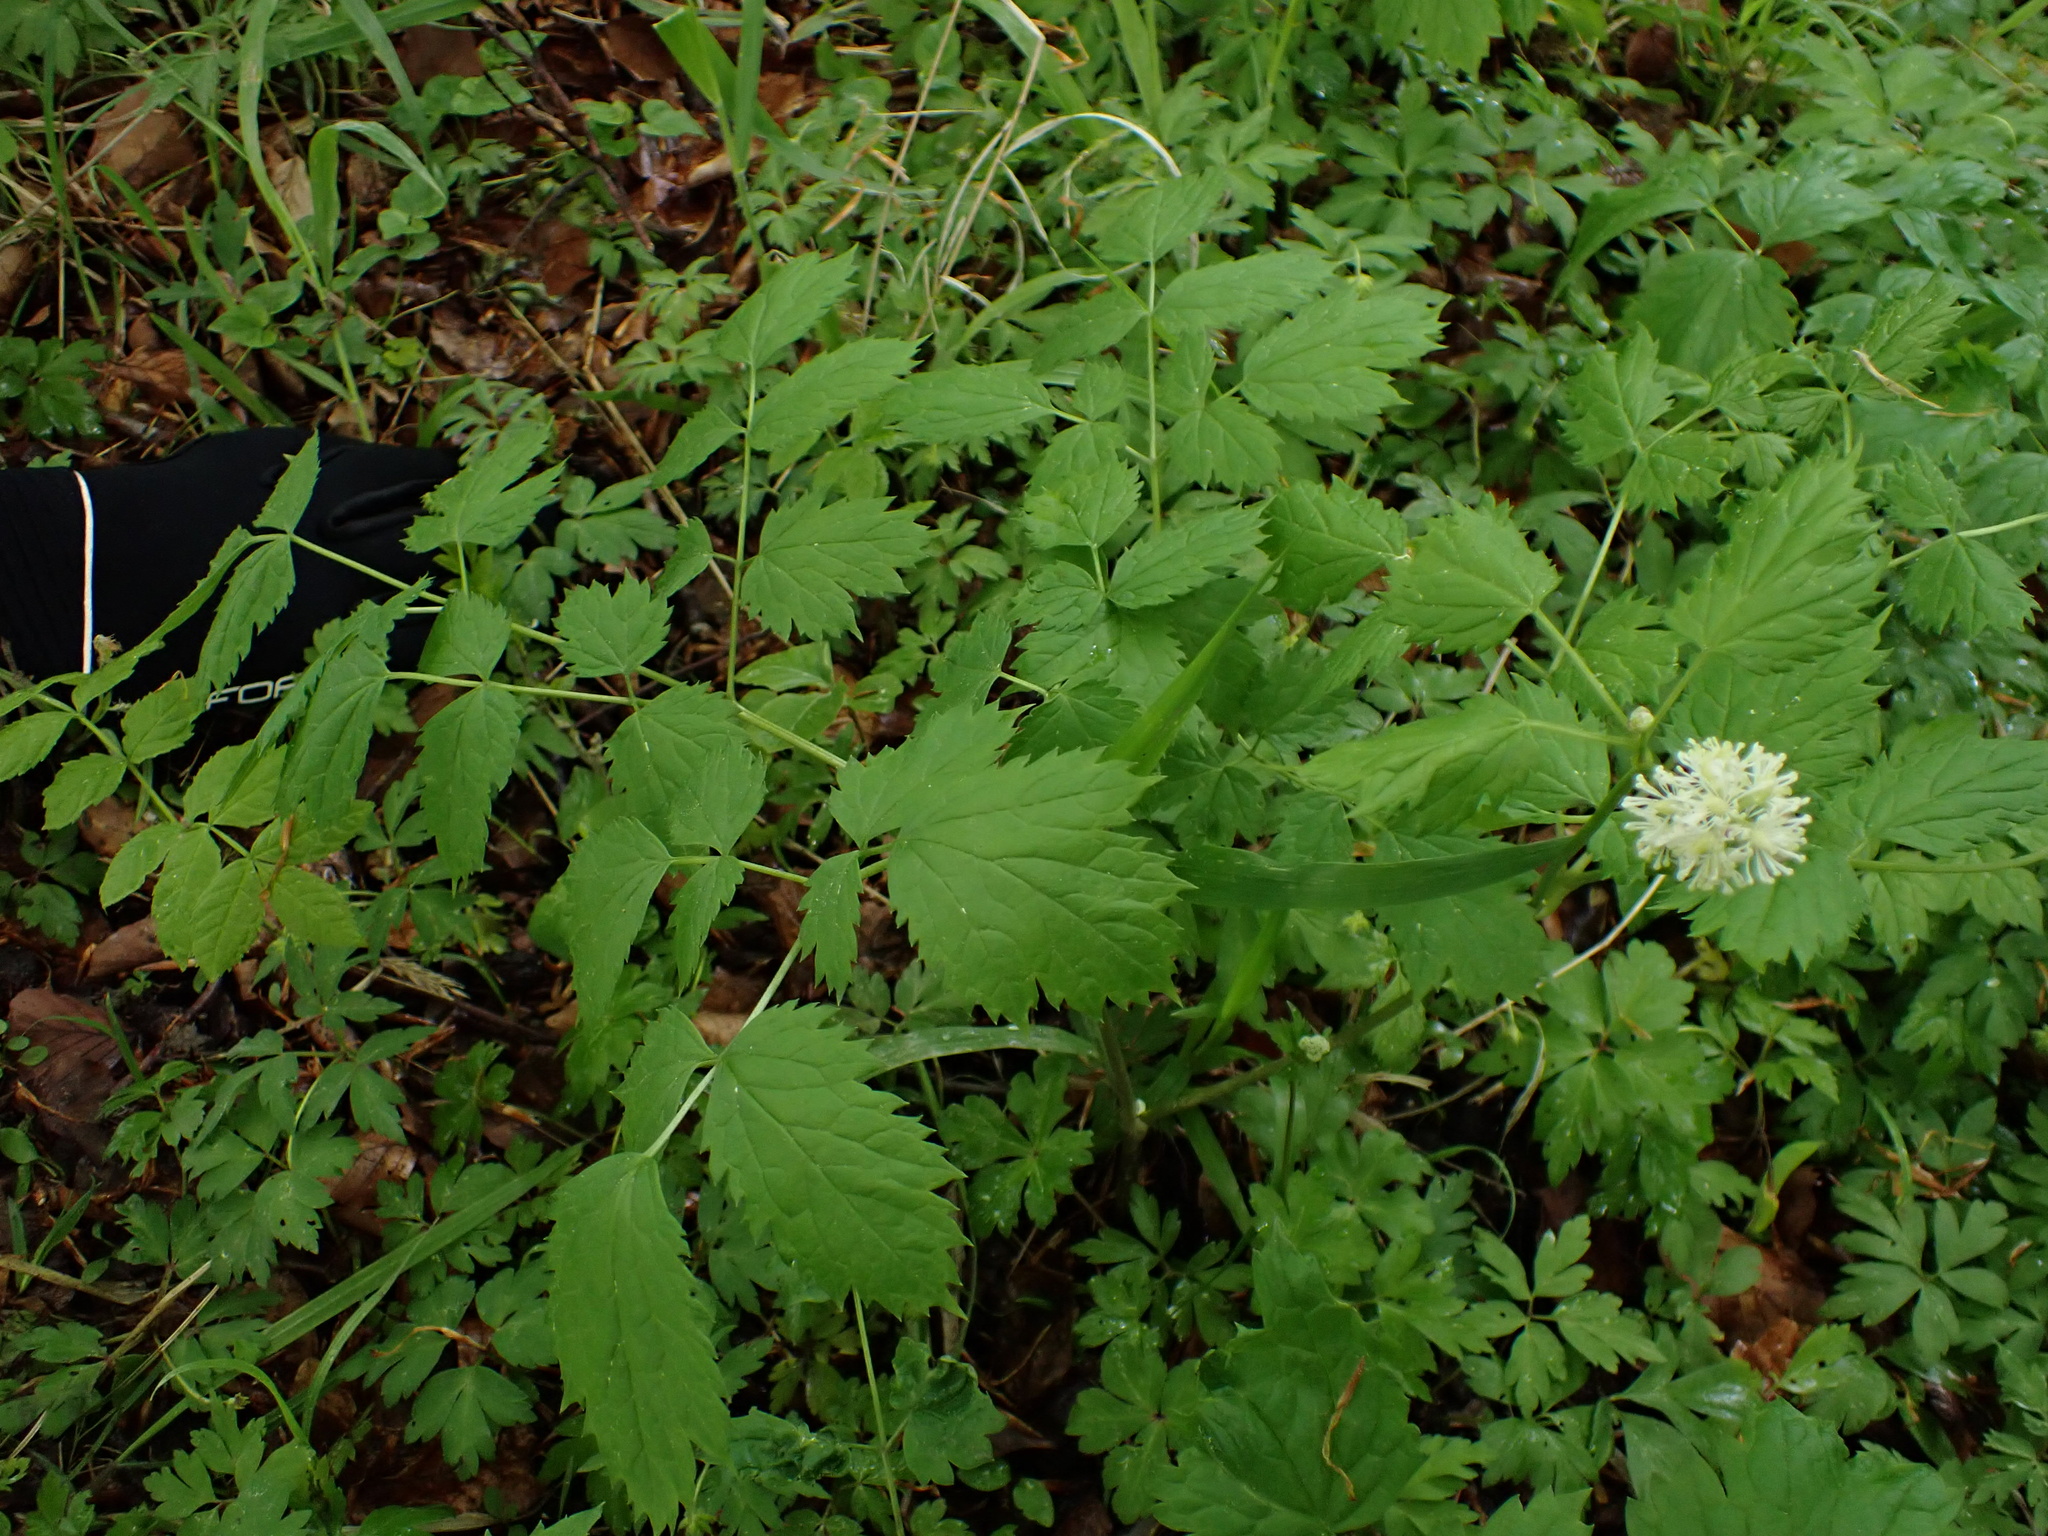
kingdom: Plantae
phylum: Tracheophyta
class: Magnoliopsida
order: Ranunculales
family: Ranunculaceae
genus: Actaea
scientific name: Actaea spicata
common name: Baneberry
